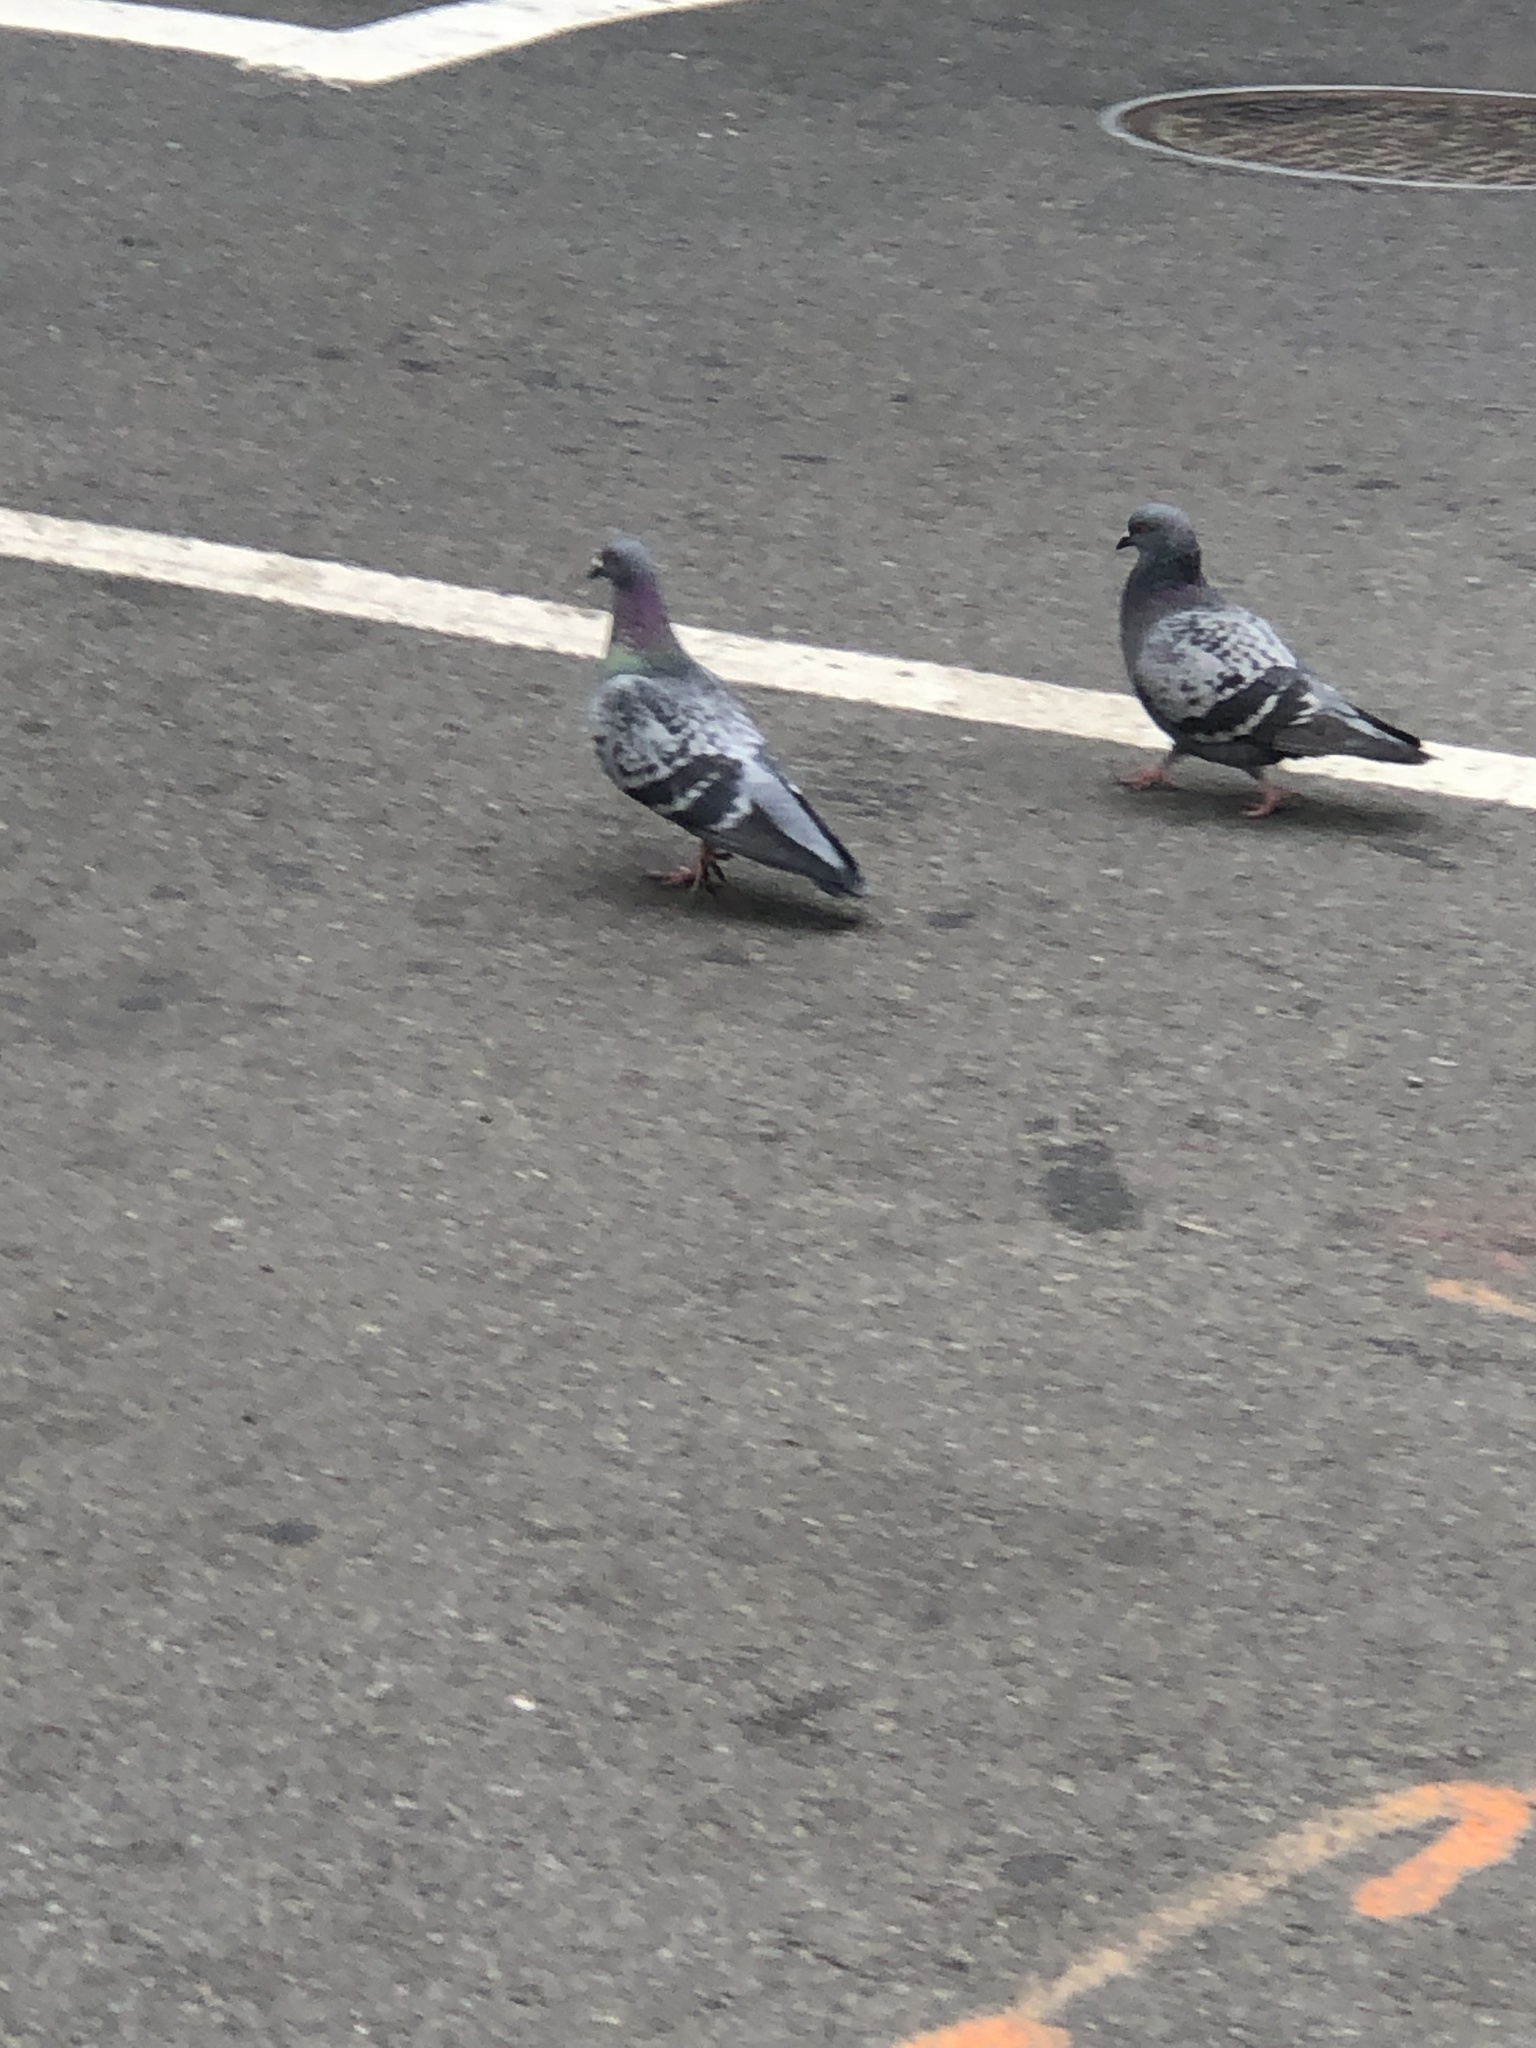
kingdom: Animalia
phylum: Chordata
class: Aves
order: Columbiformes
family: Columbidae
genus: Columba
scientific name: Columba livia
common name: Rock pigeon
